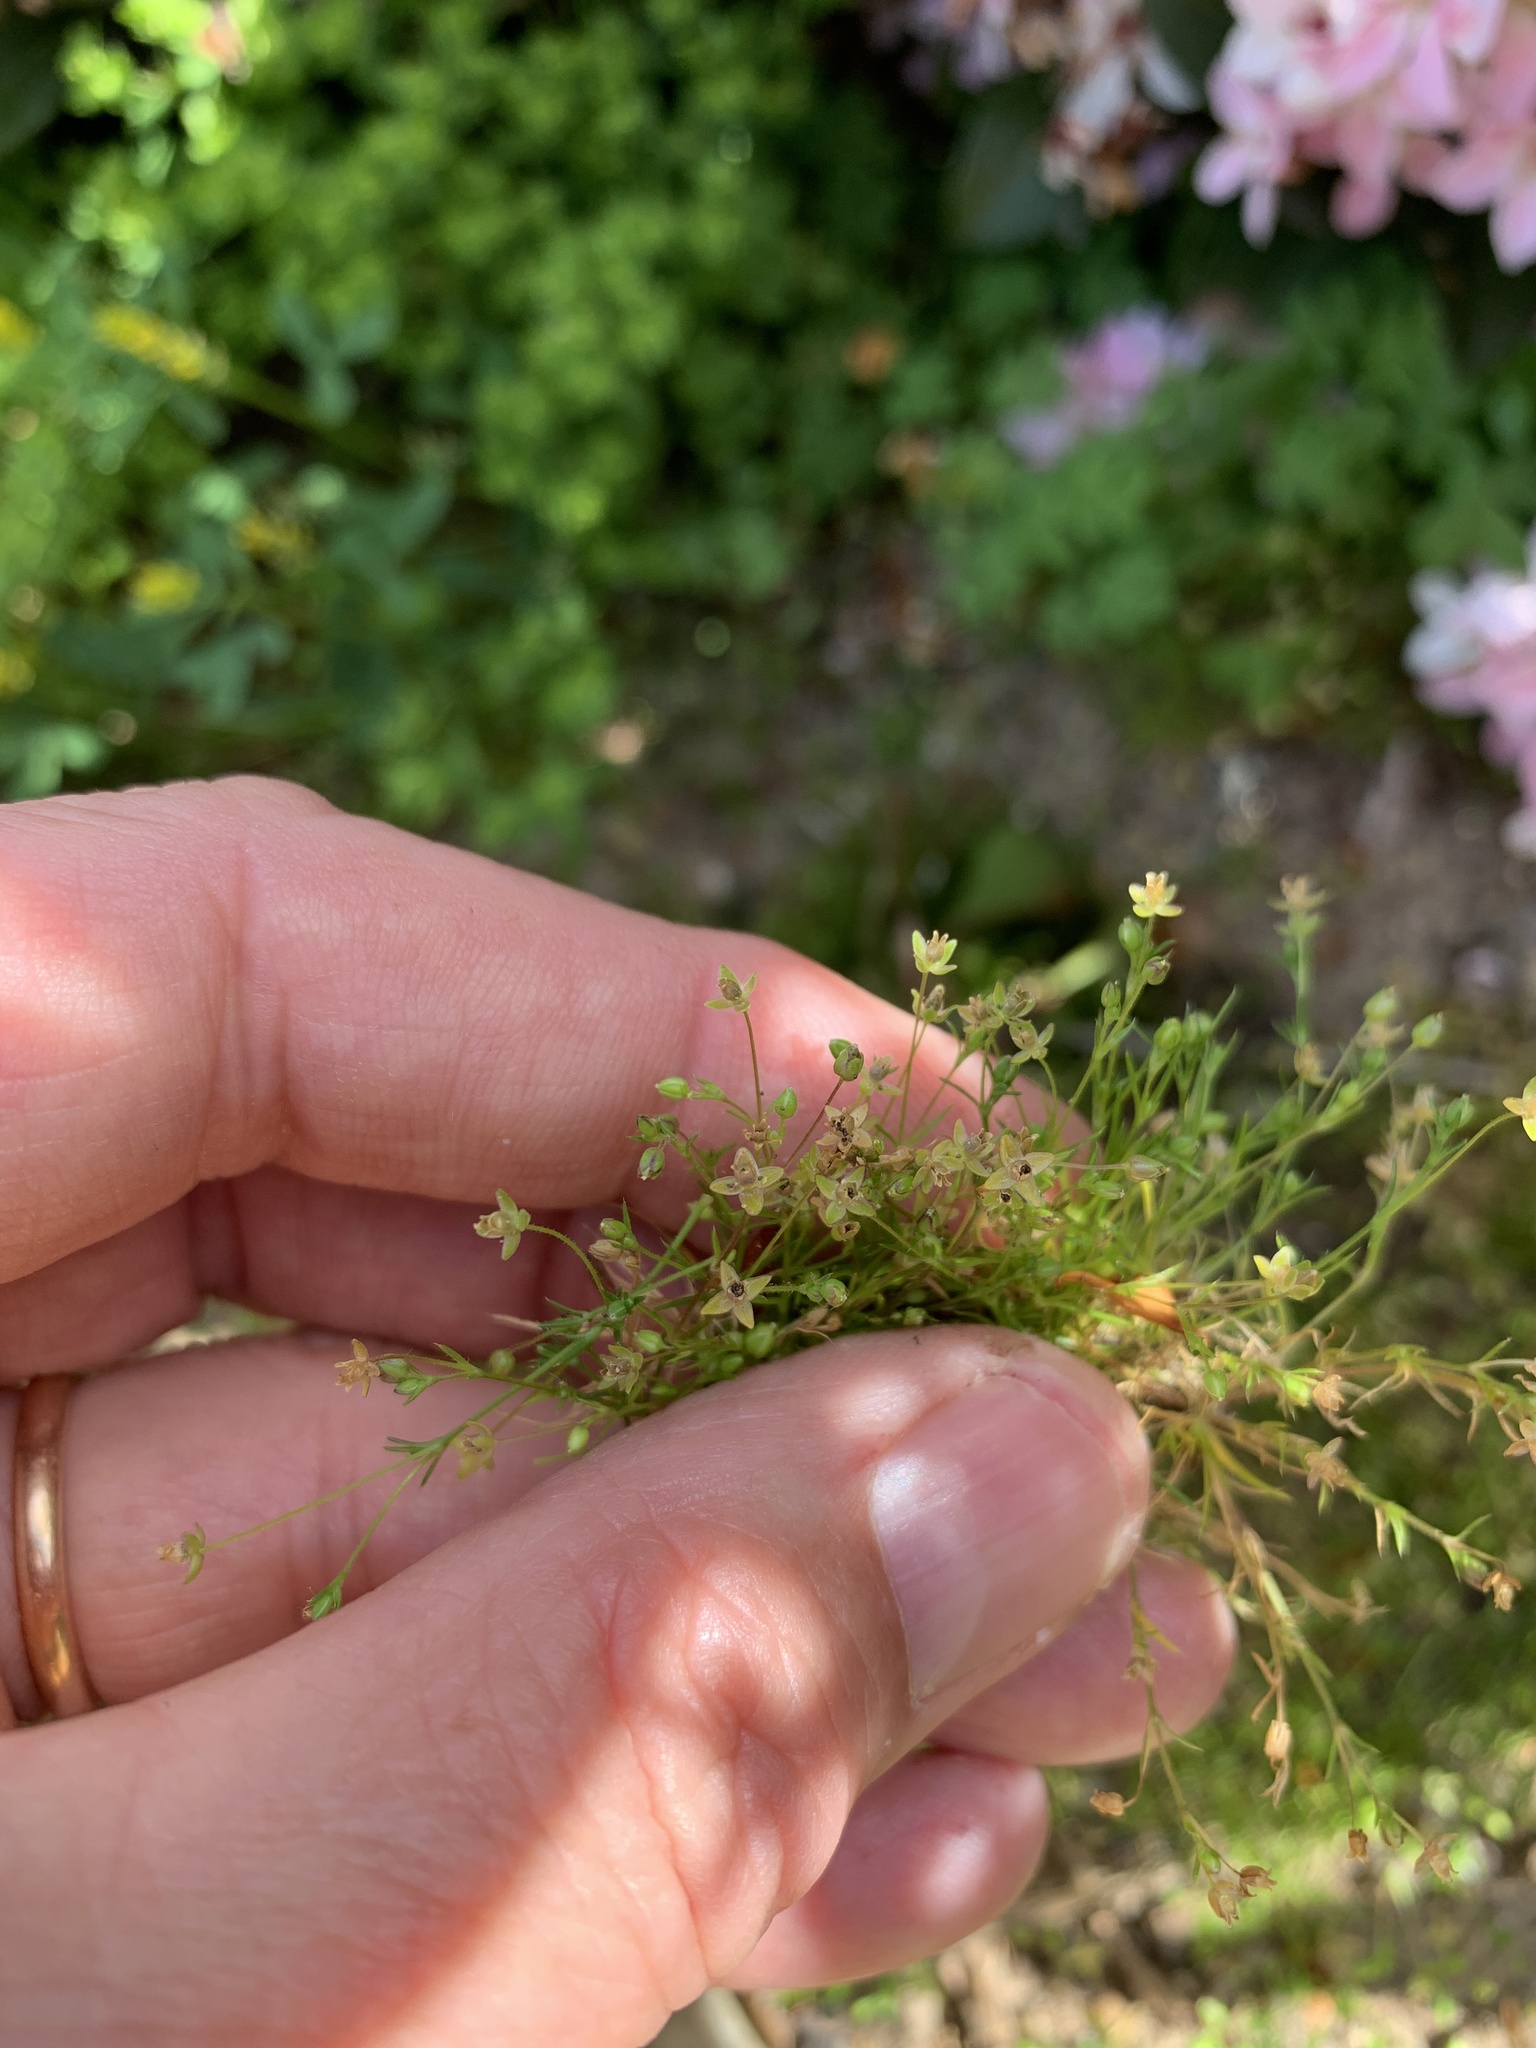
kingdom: Plantae
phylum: Tracheophyta
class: Magnoliopsida
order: Caryophyllales
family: Caryophyllaceae
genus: Sagina
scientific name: Sagina micropetala
